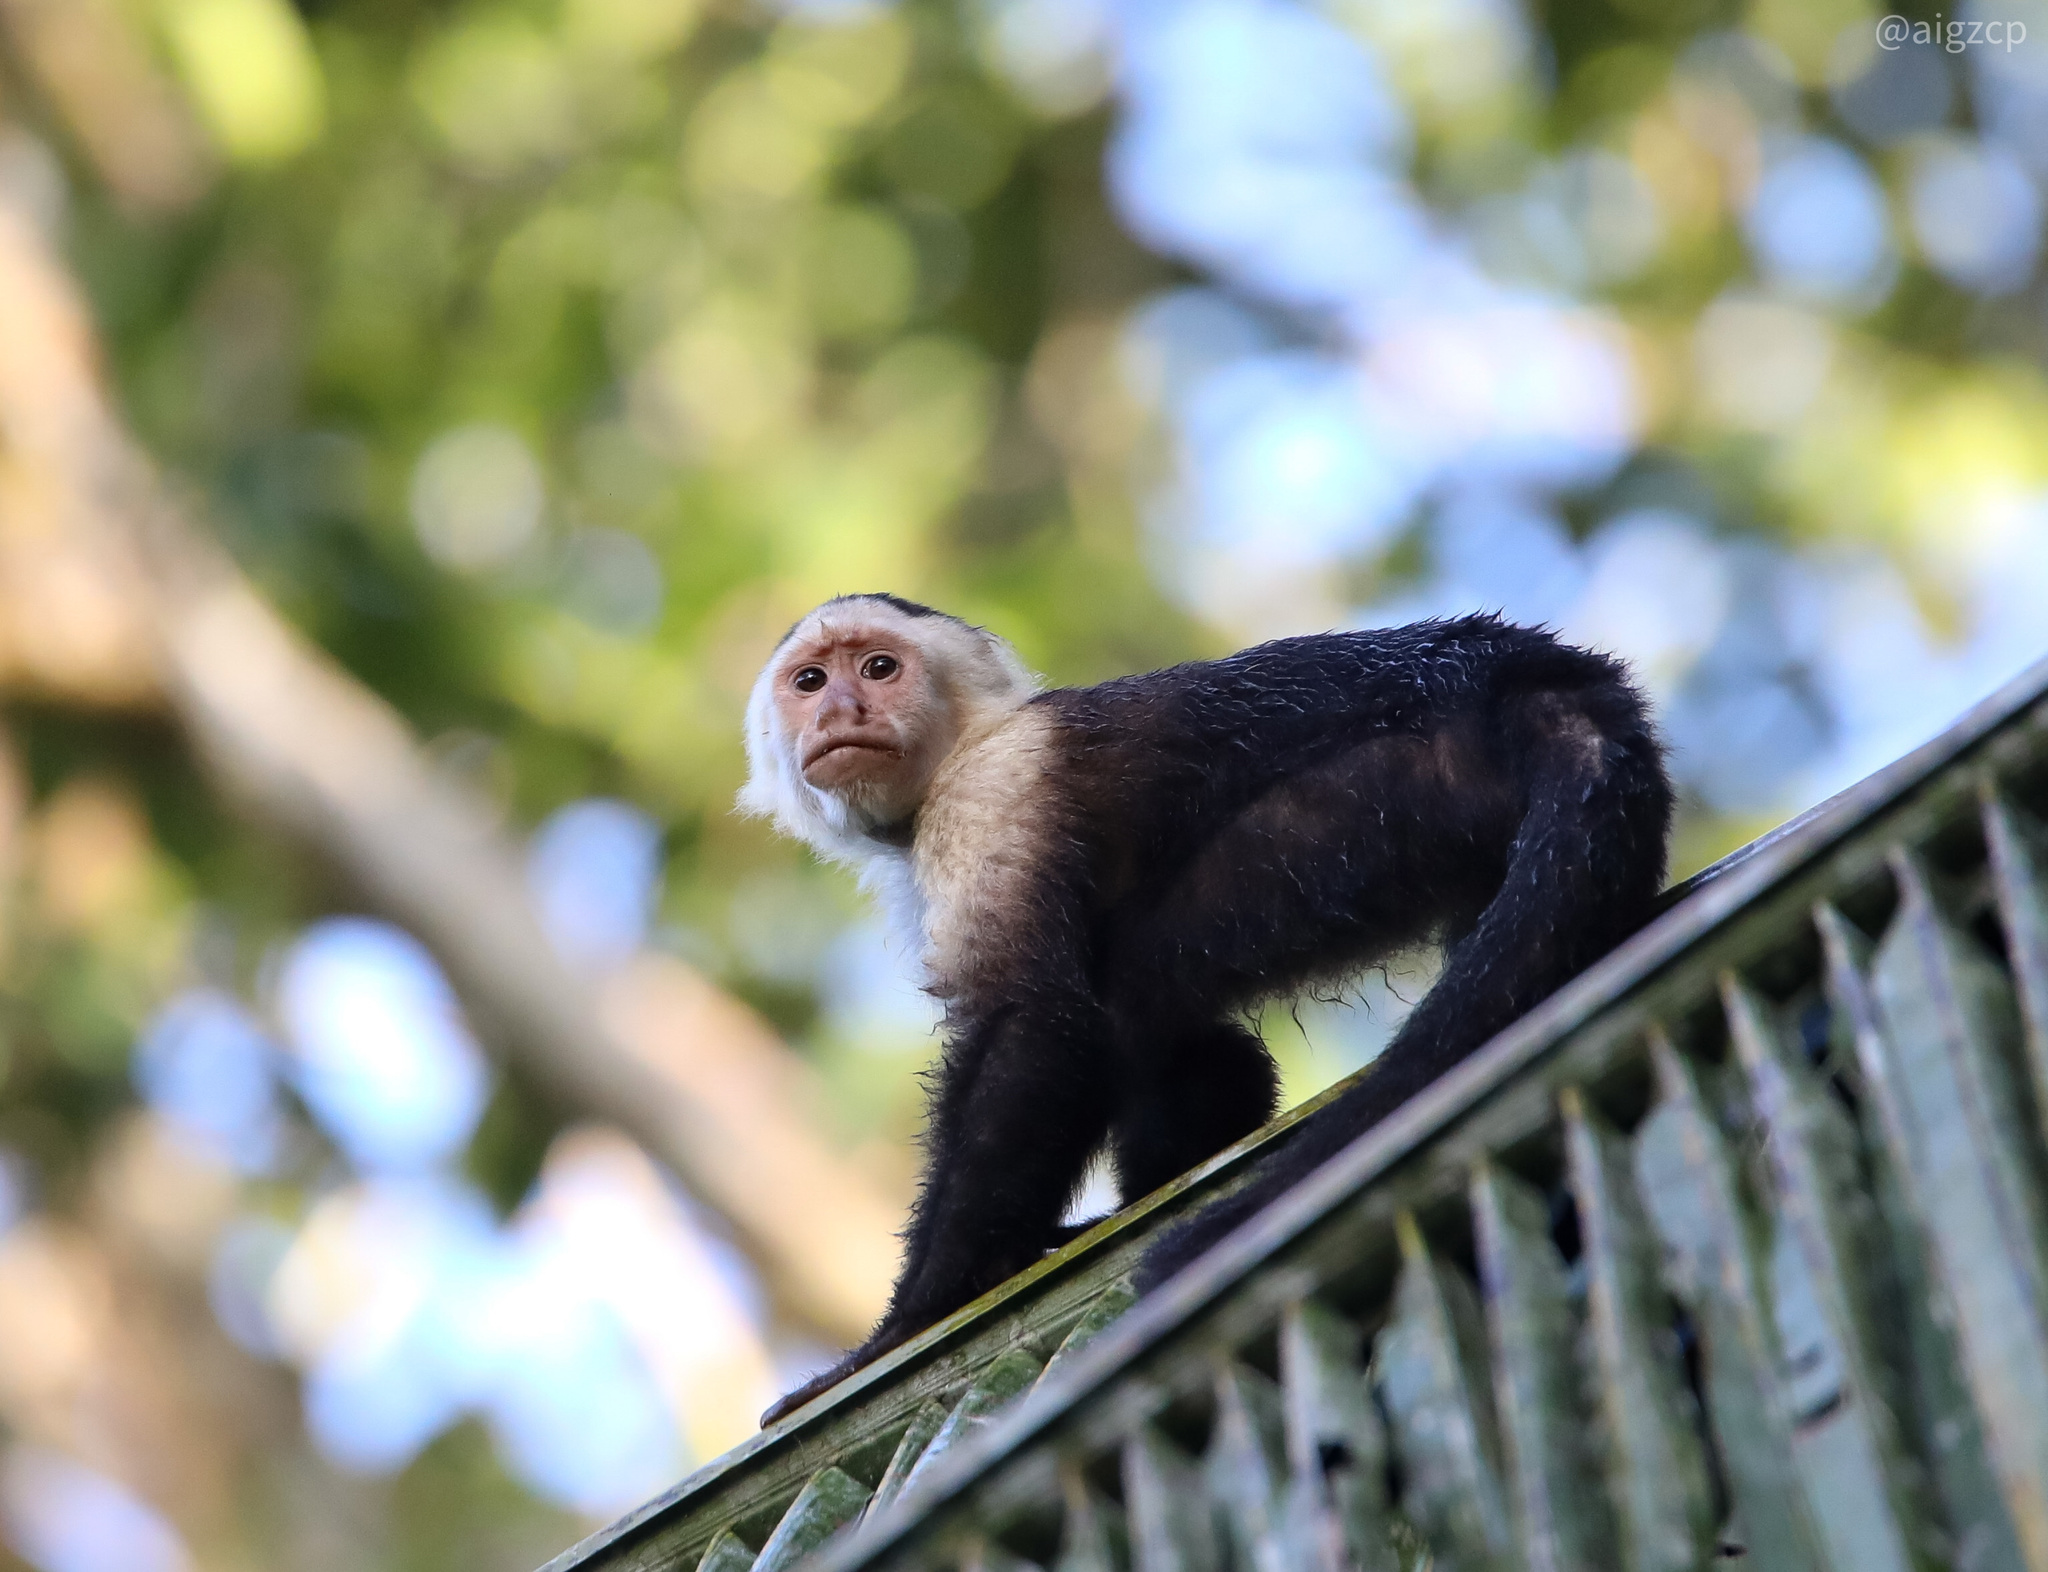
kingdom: Animalia
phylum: Chordata
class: Mammalia
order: Primates
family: Cebidae
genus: Cebus
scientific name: Cebus imitator
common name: Panamanian white-faced capuchin
